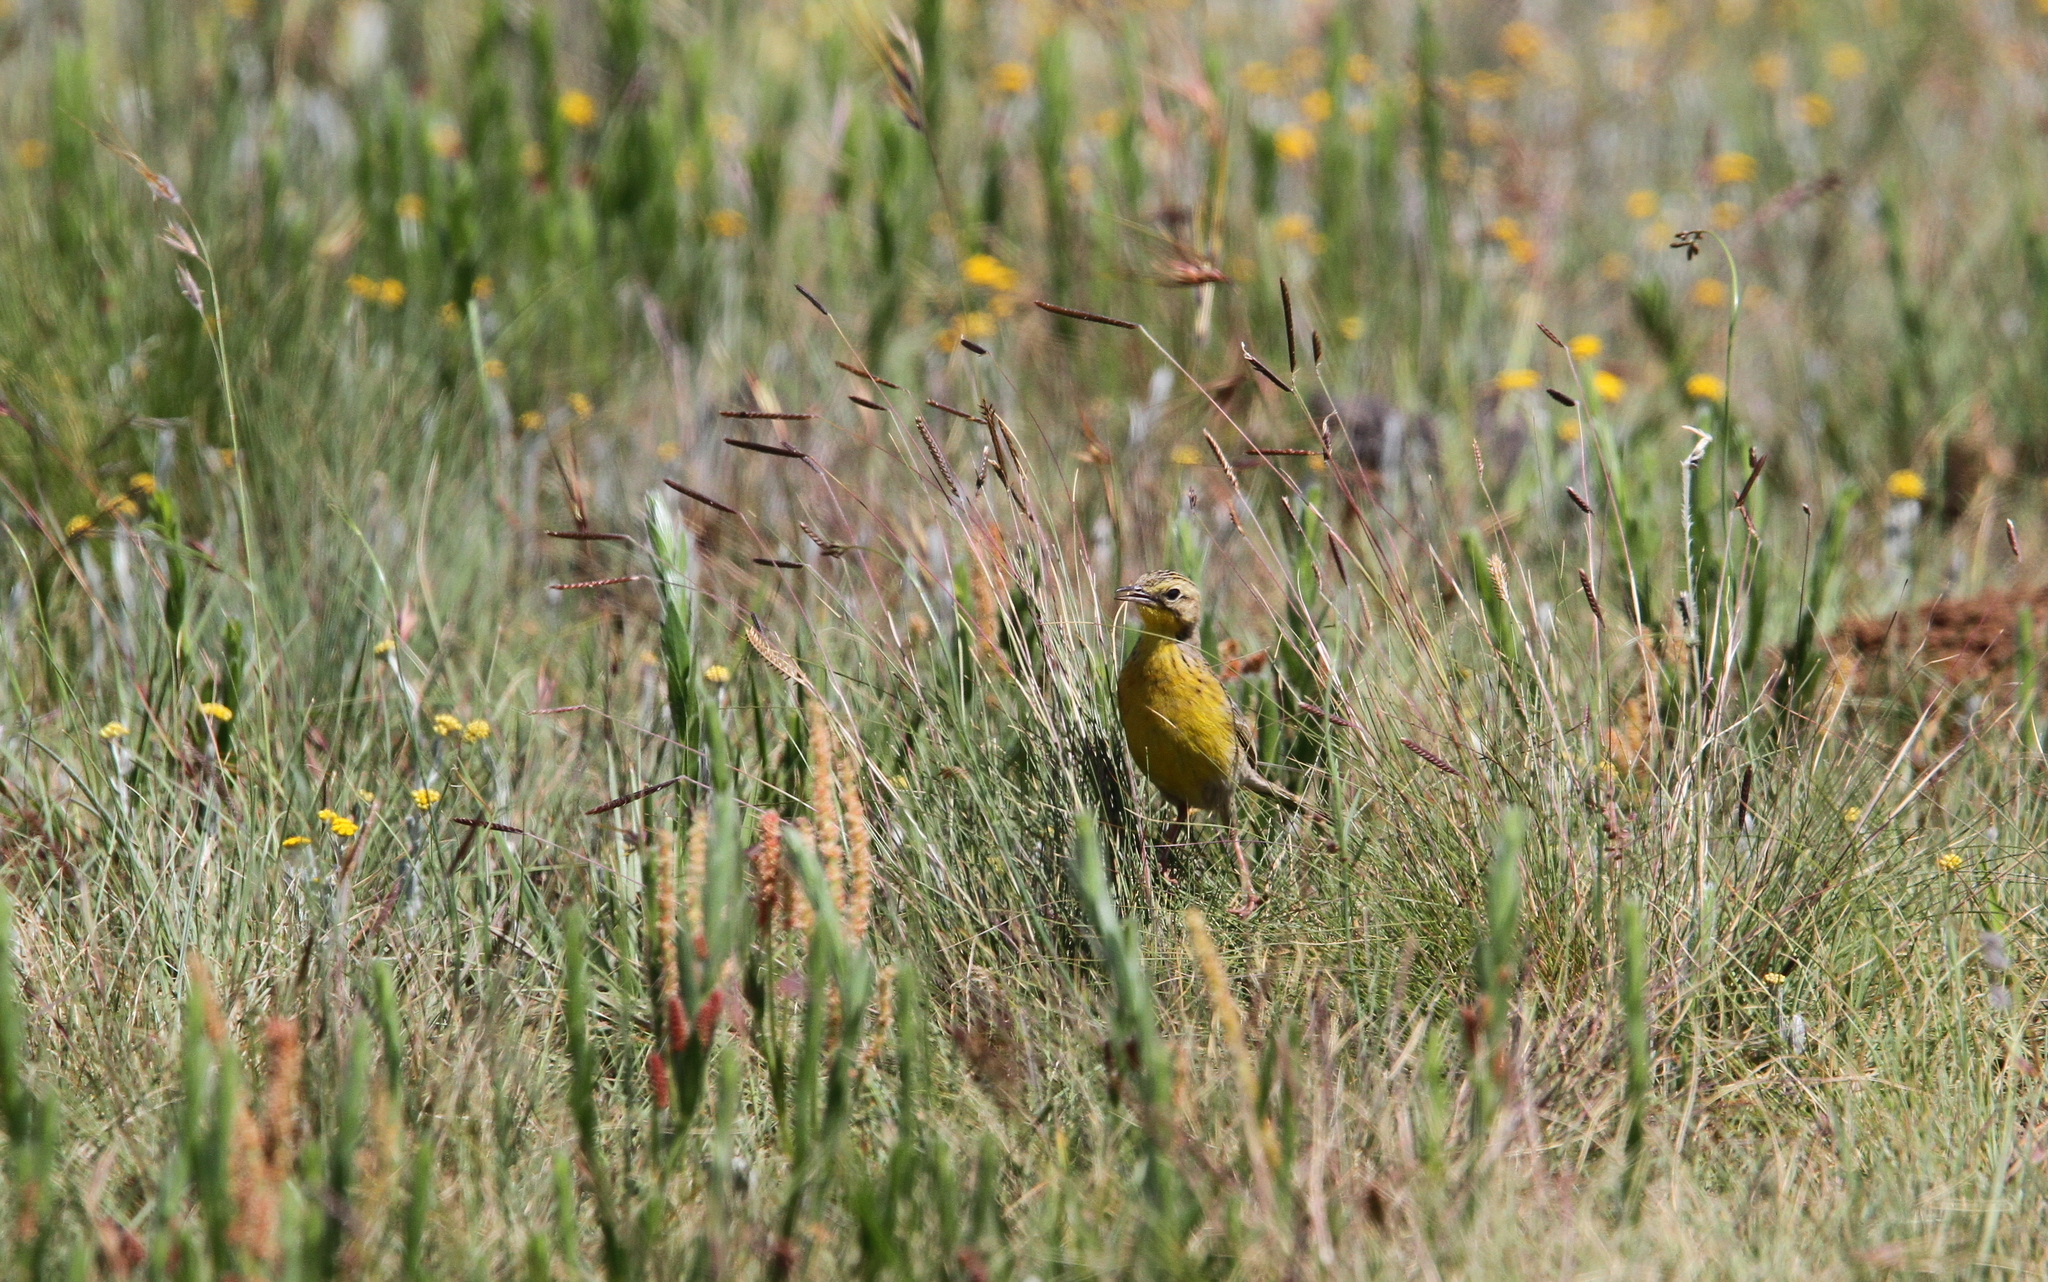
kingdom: Animalia
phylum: Chordata
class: Aves
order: Passeriformes
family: Motacillidae
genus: Anthus
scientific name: Anthus chloris
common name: Yellow-breasted pipit
